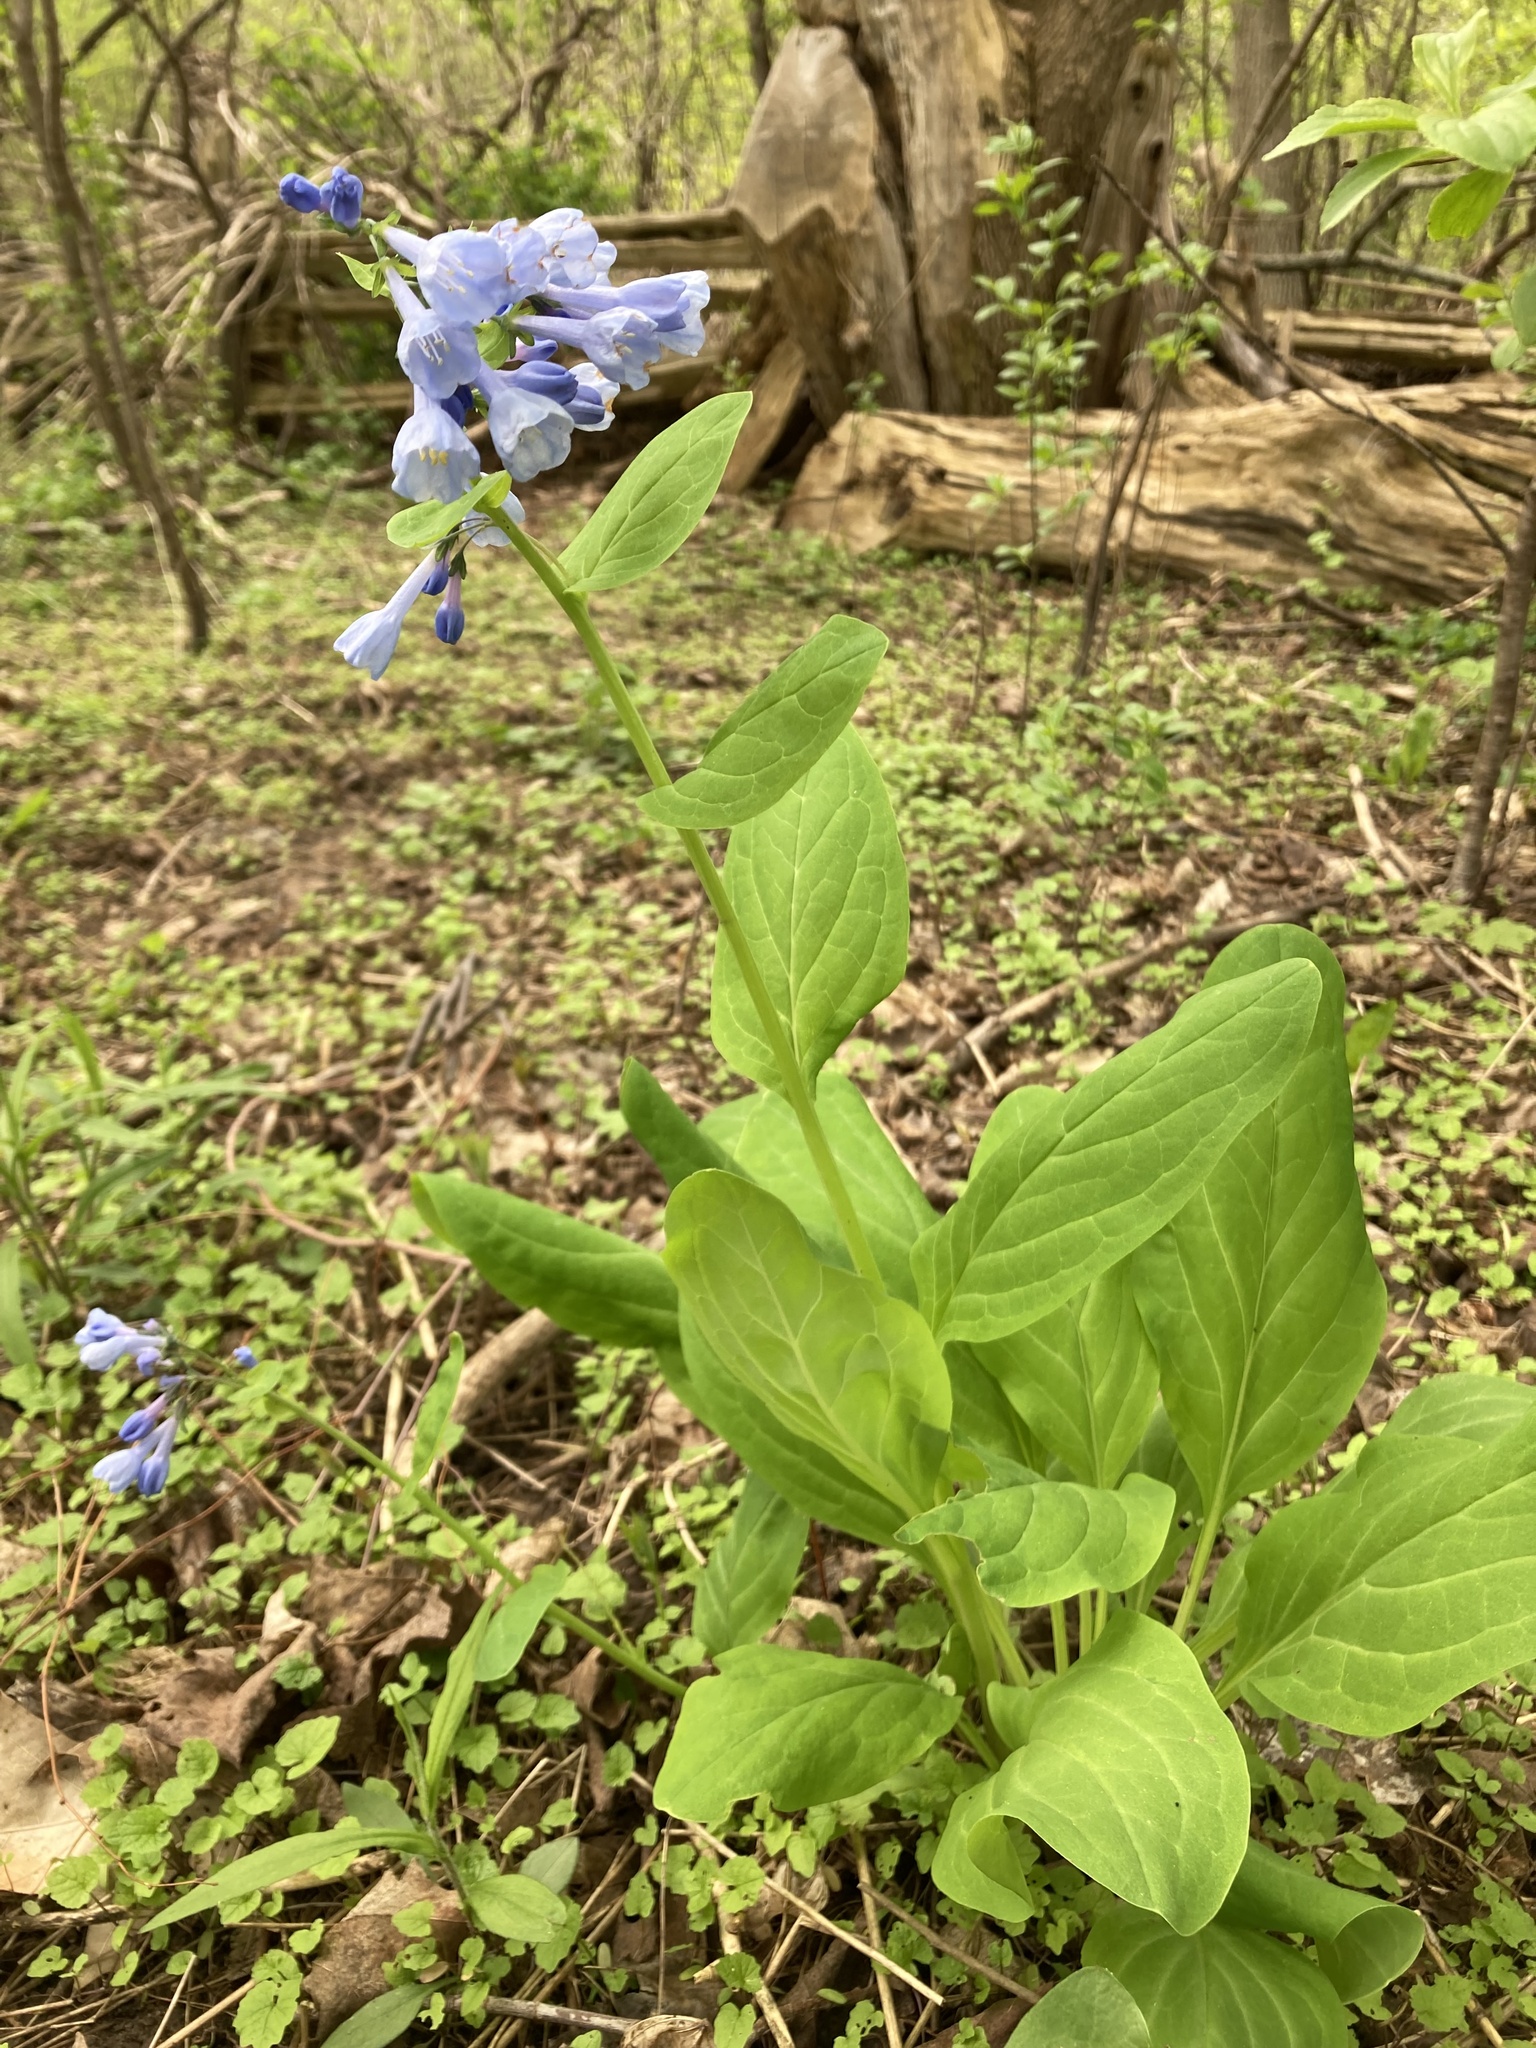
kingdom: Plantae
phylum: Tracheophyta
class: Magnoliopsida
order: Boraginales
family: Boraginaceae
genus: Mertensia
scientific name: Mertensia virginica
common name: Virginia bluebells
